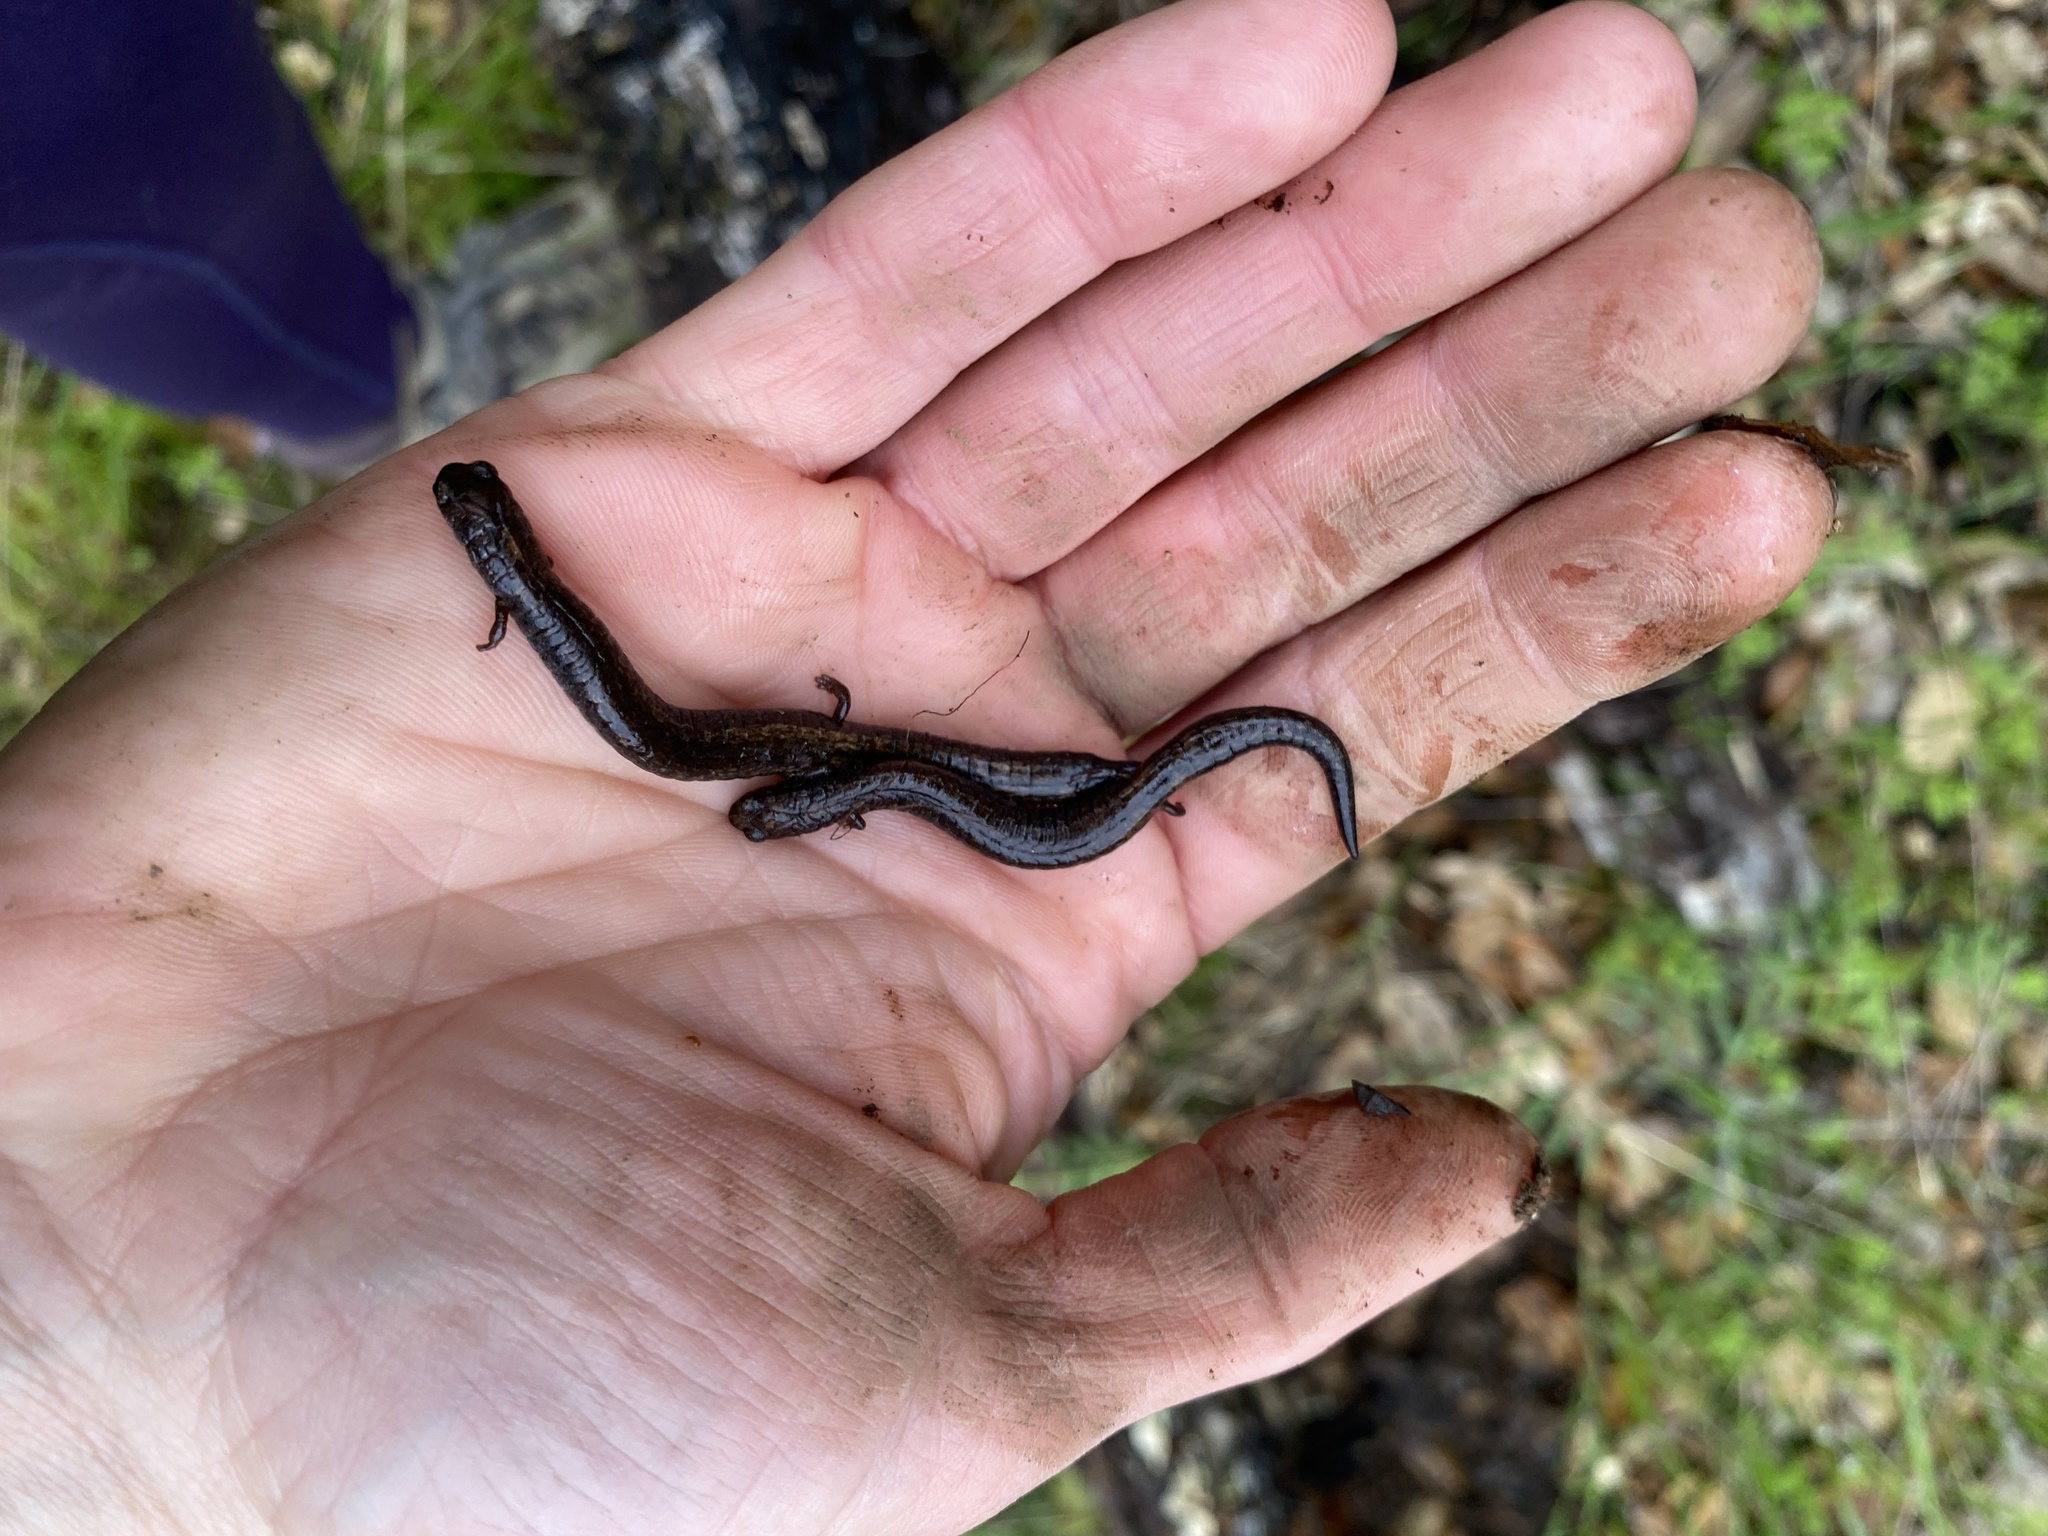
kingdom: Animalia
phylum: Chordata
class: Amphibia
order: Caudata
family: Plethodontidae
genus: Batrachoseps
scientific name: Batrachoseps nigriventris
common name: Black-bellied slender salamander
